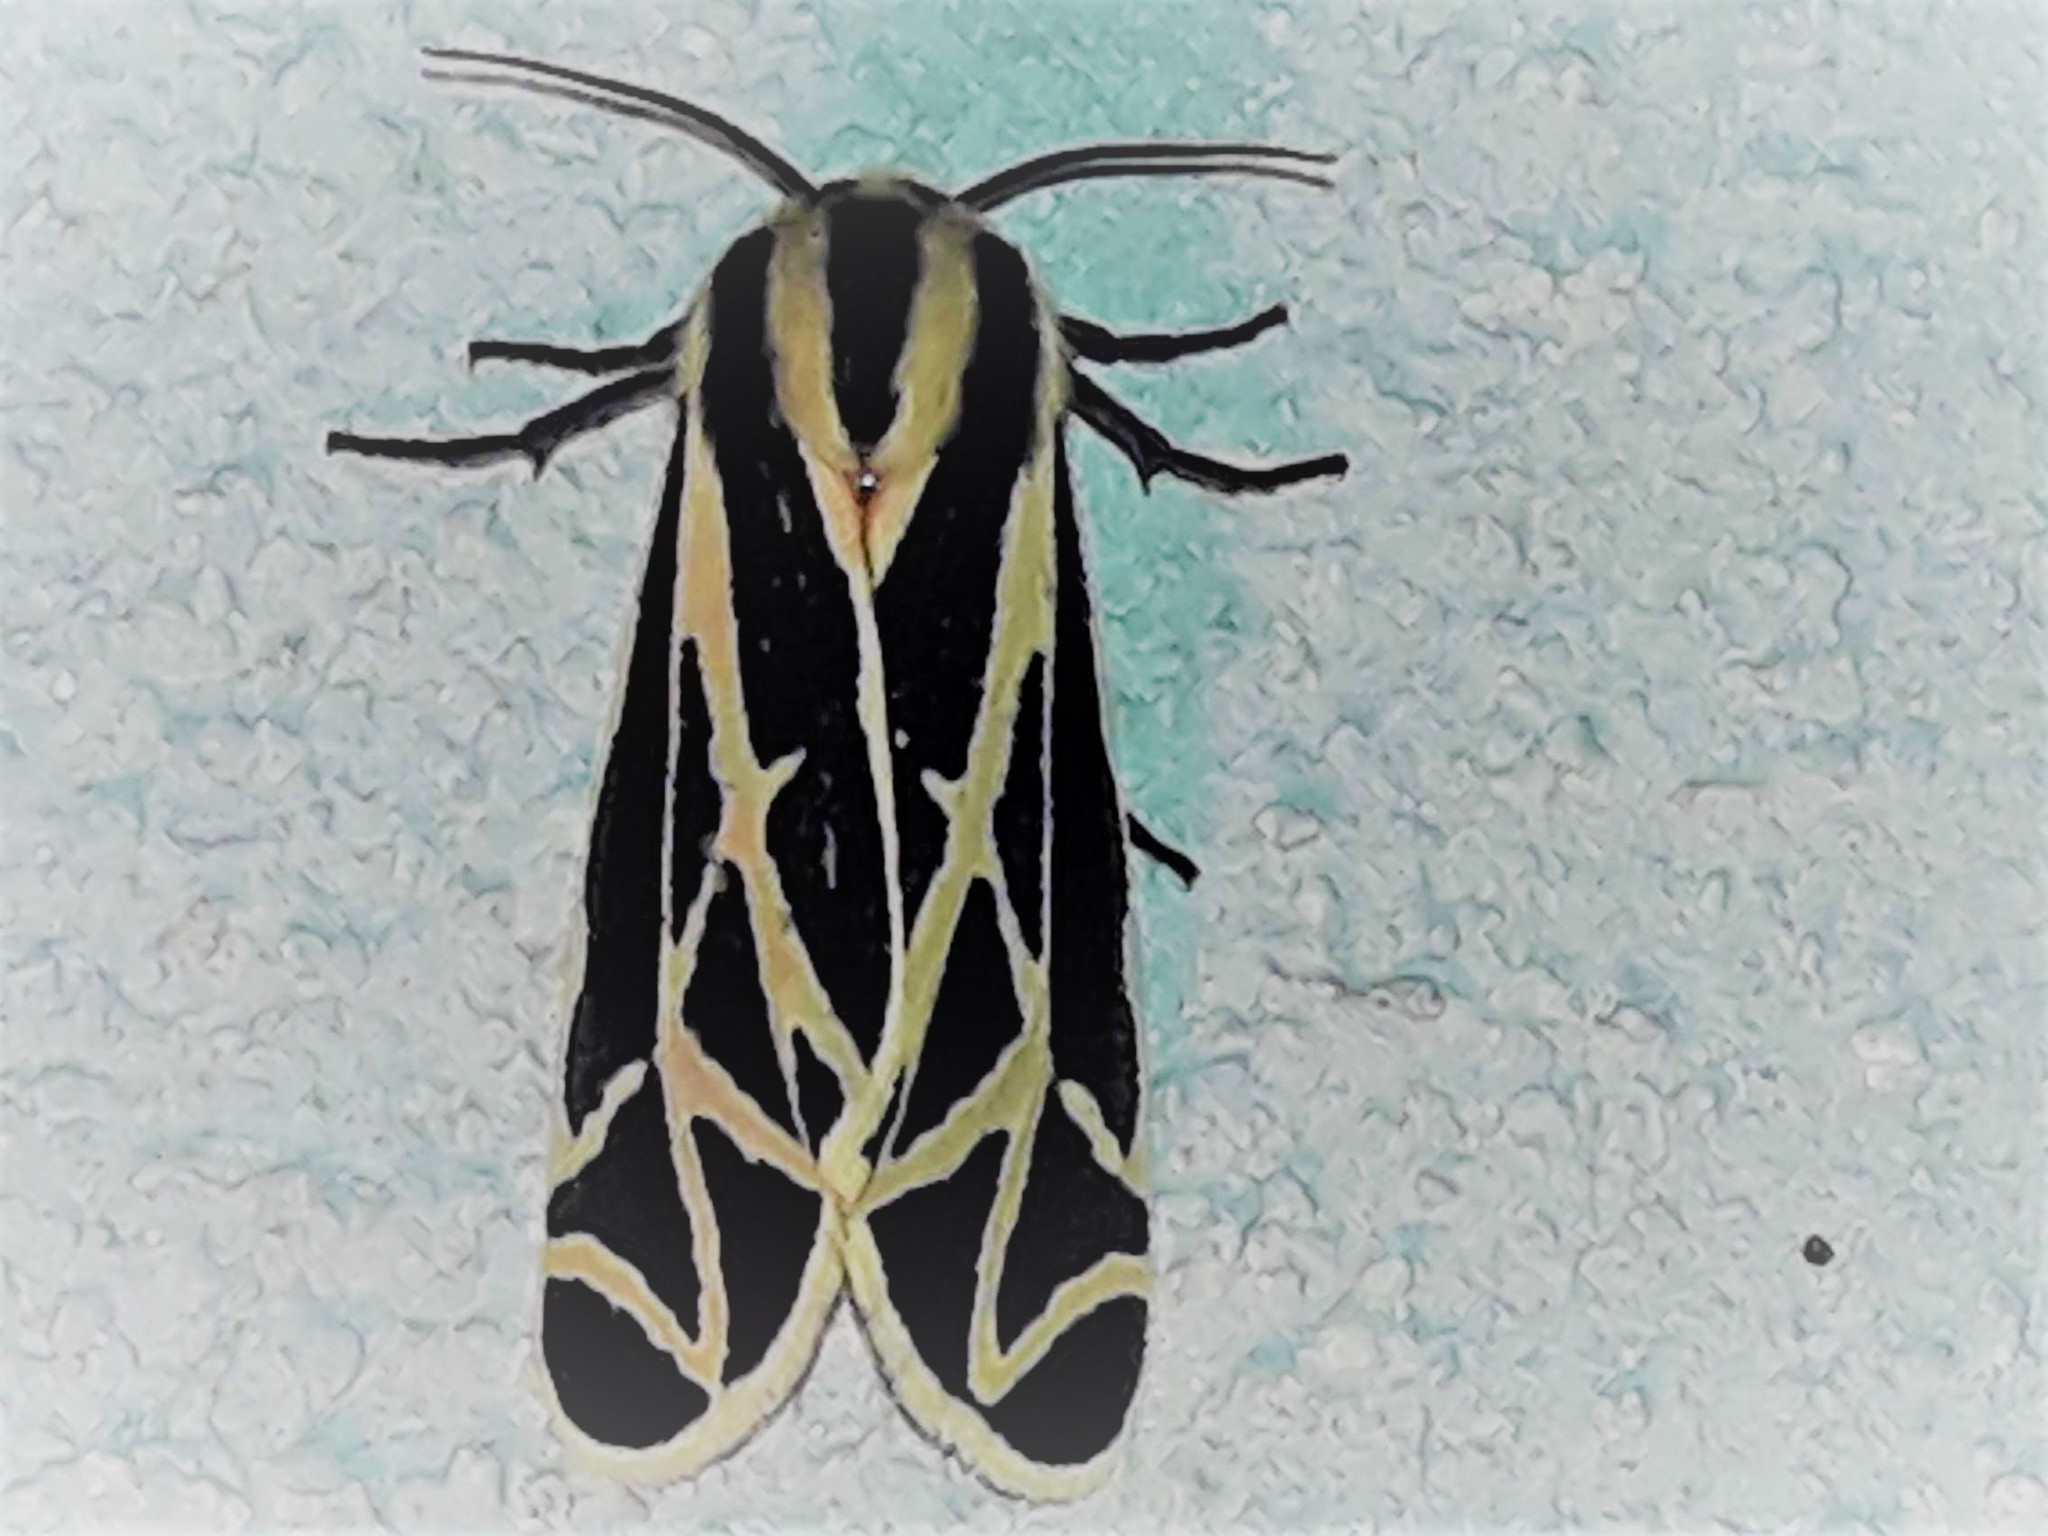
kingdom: Animalia
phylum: Arthropoda
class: Insecta
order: Lepidoptera
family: Erebidae
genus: Apantesis
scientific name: Apantesis
